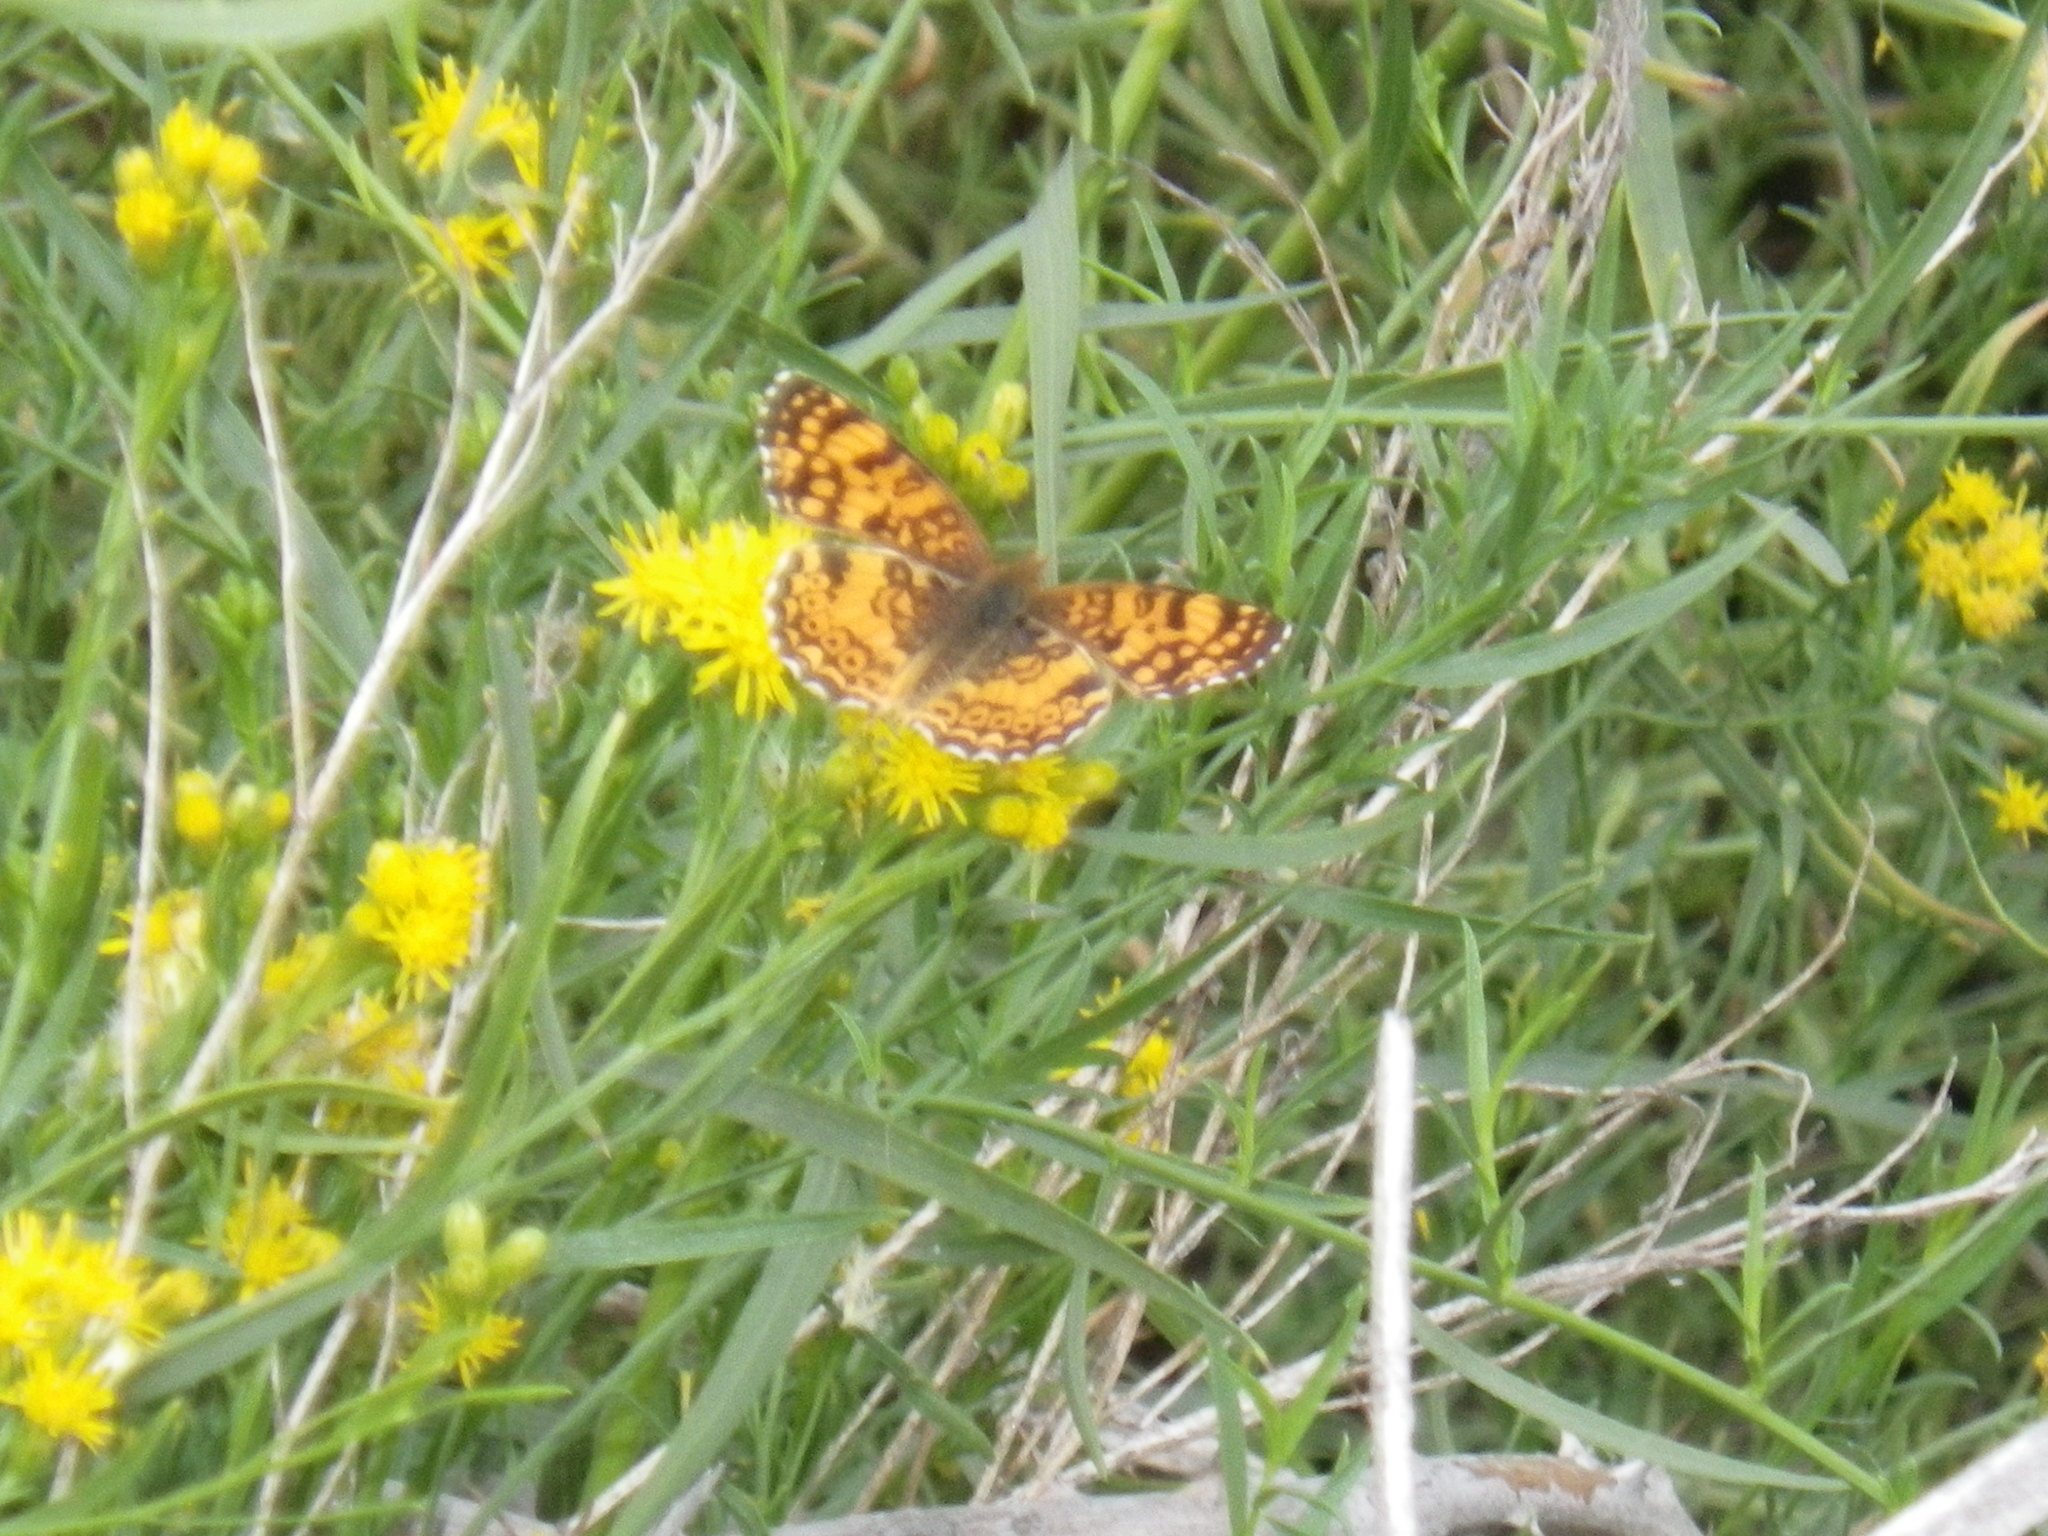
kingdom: Animalia
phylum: Arthropoda
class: Insecta
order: Lepidoptera
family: Nymphalidae
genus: Eresia
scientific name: Eresia aveyrona
